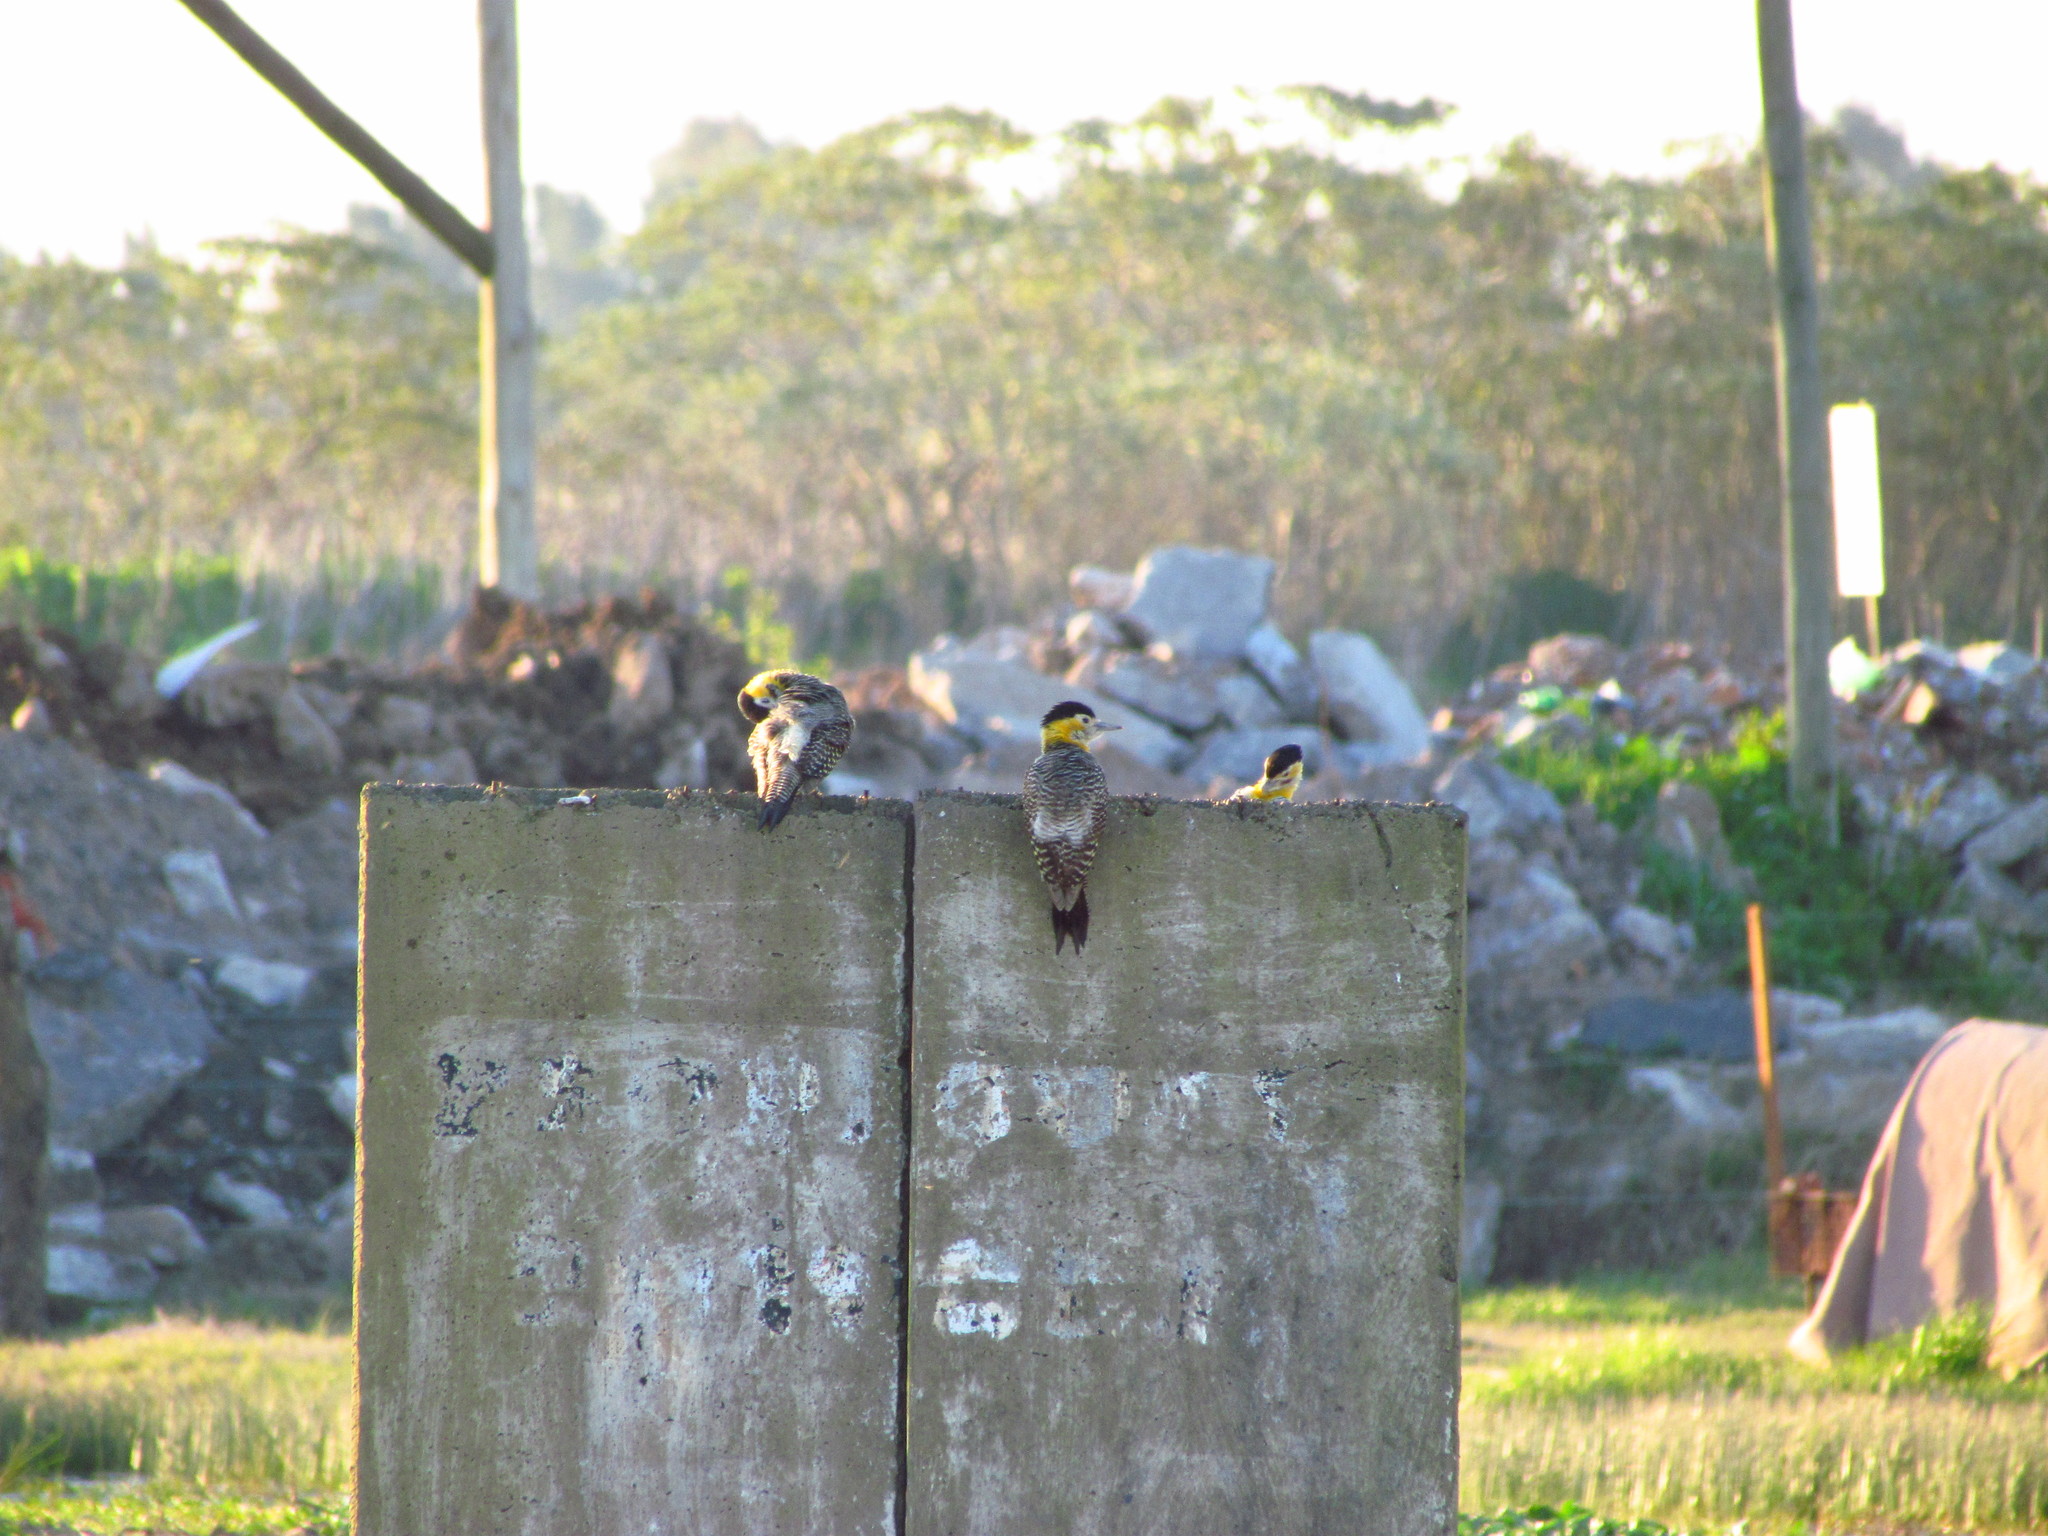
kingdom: Animalia
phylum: Chordata
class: Aves
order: Piciformes
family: Picidae
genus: Colaptes
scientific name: Colaptes campestris
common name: Campo flicker
